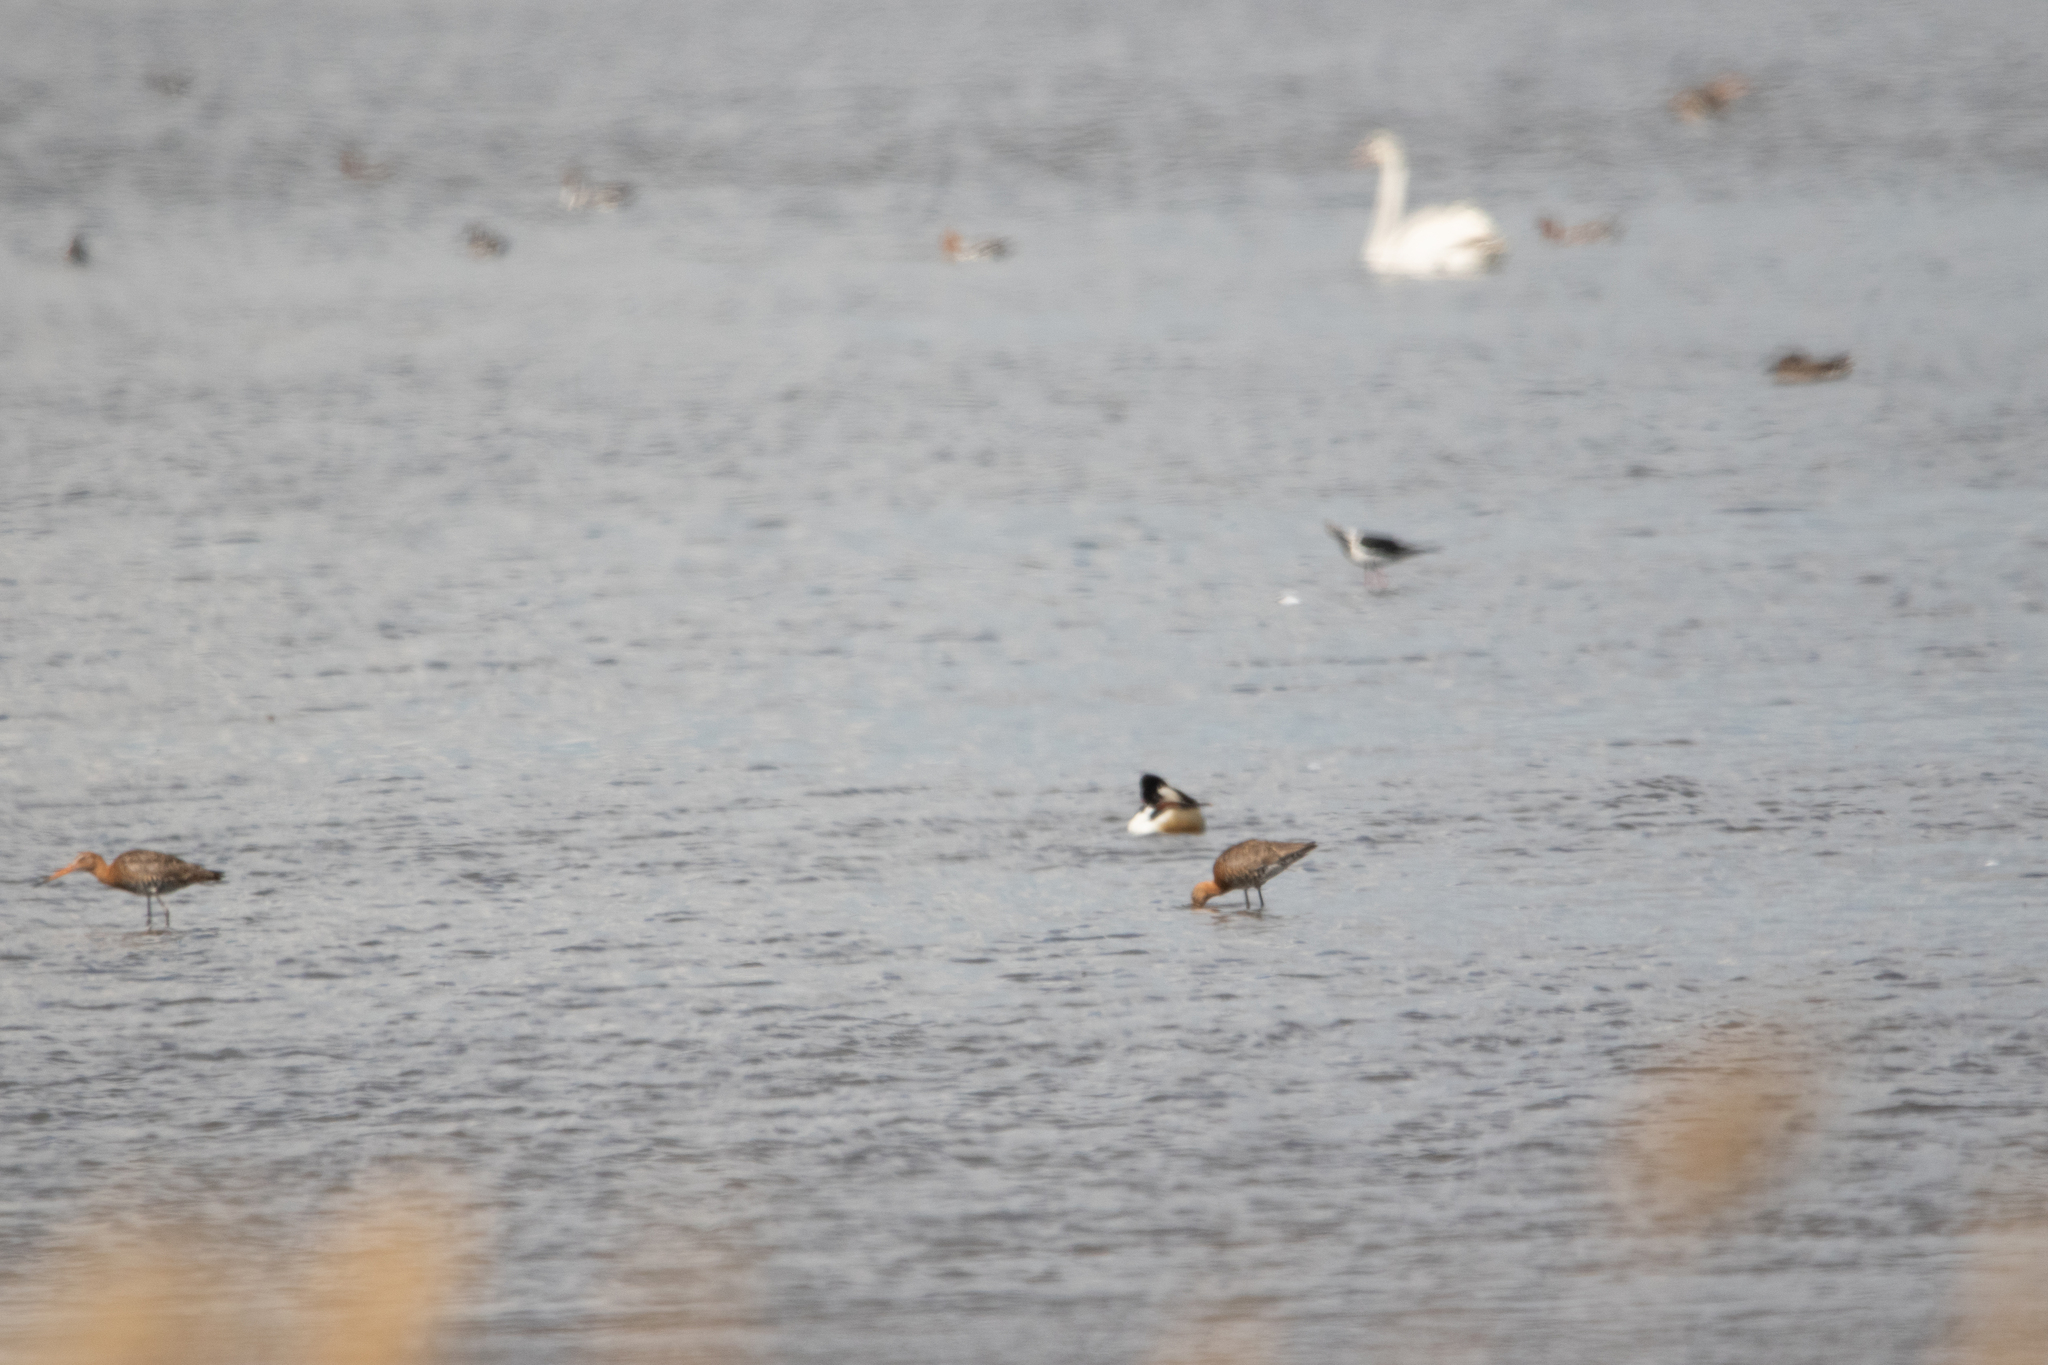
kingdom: Animalia
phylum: Chordata
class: Aves
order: Charadriiformes
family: Scolopacidae
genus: Limosa
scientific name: Limosa limosa
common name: Black-tailed godwit
